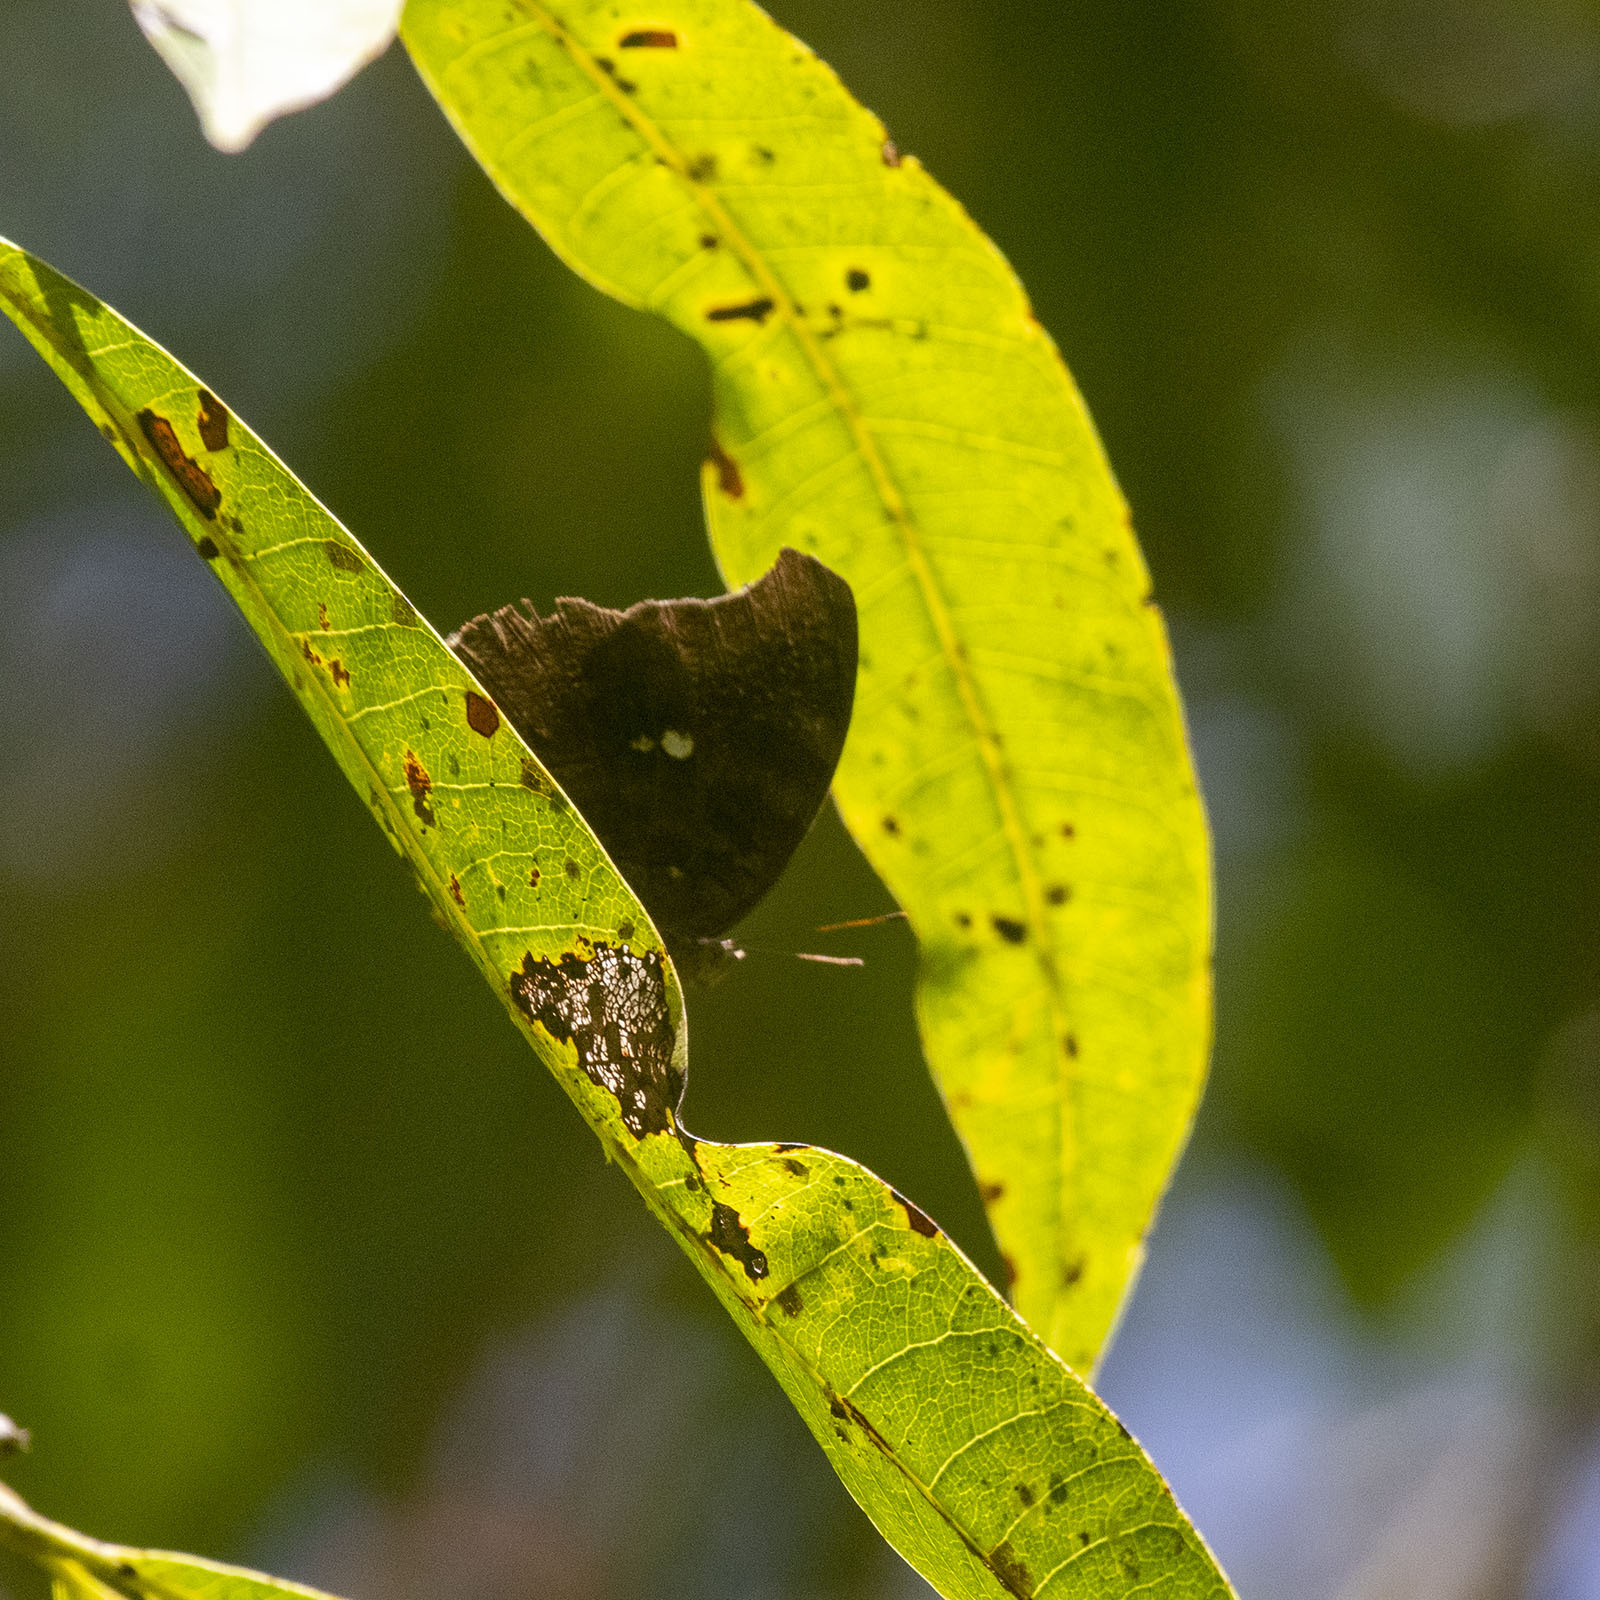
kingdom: Animalia
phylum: Arthropoda
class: Insecta
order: Lepidoptera
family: Nymphalidae
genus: Junonia
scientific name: Junonia iphita
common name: Chocolate pansy
